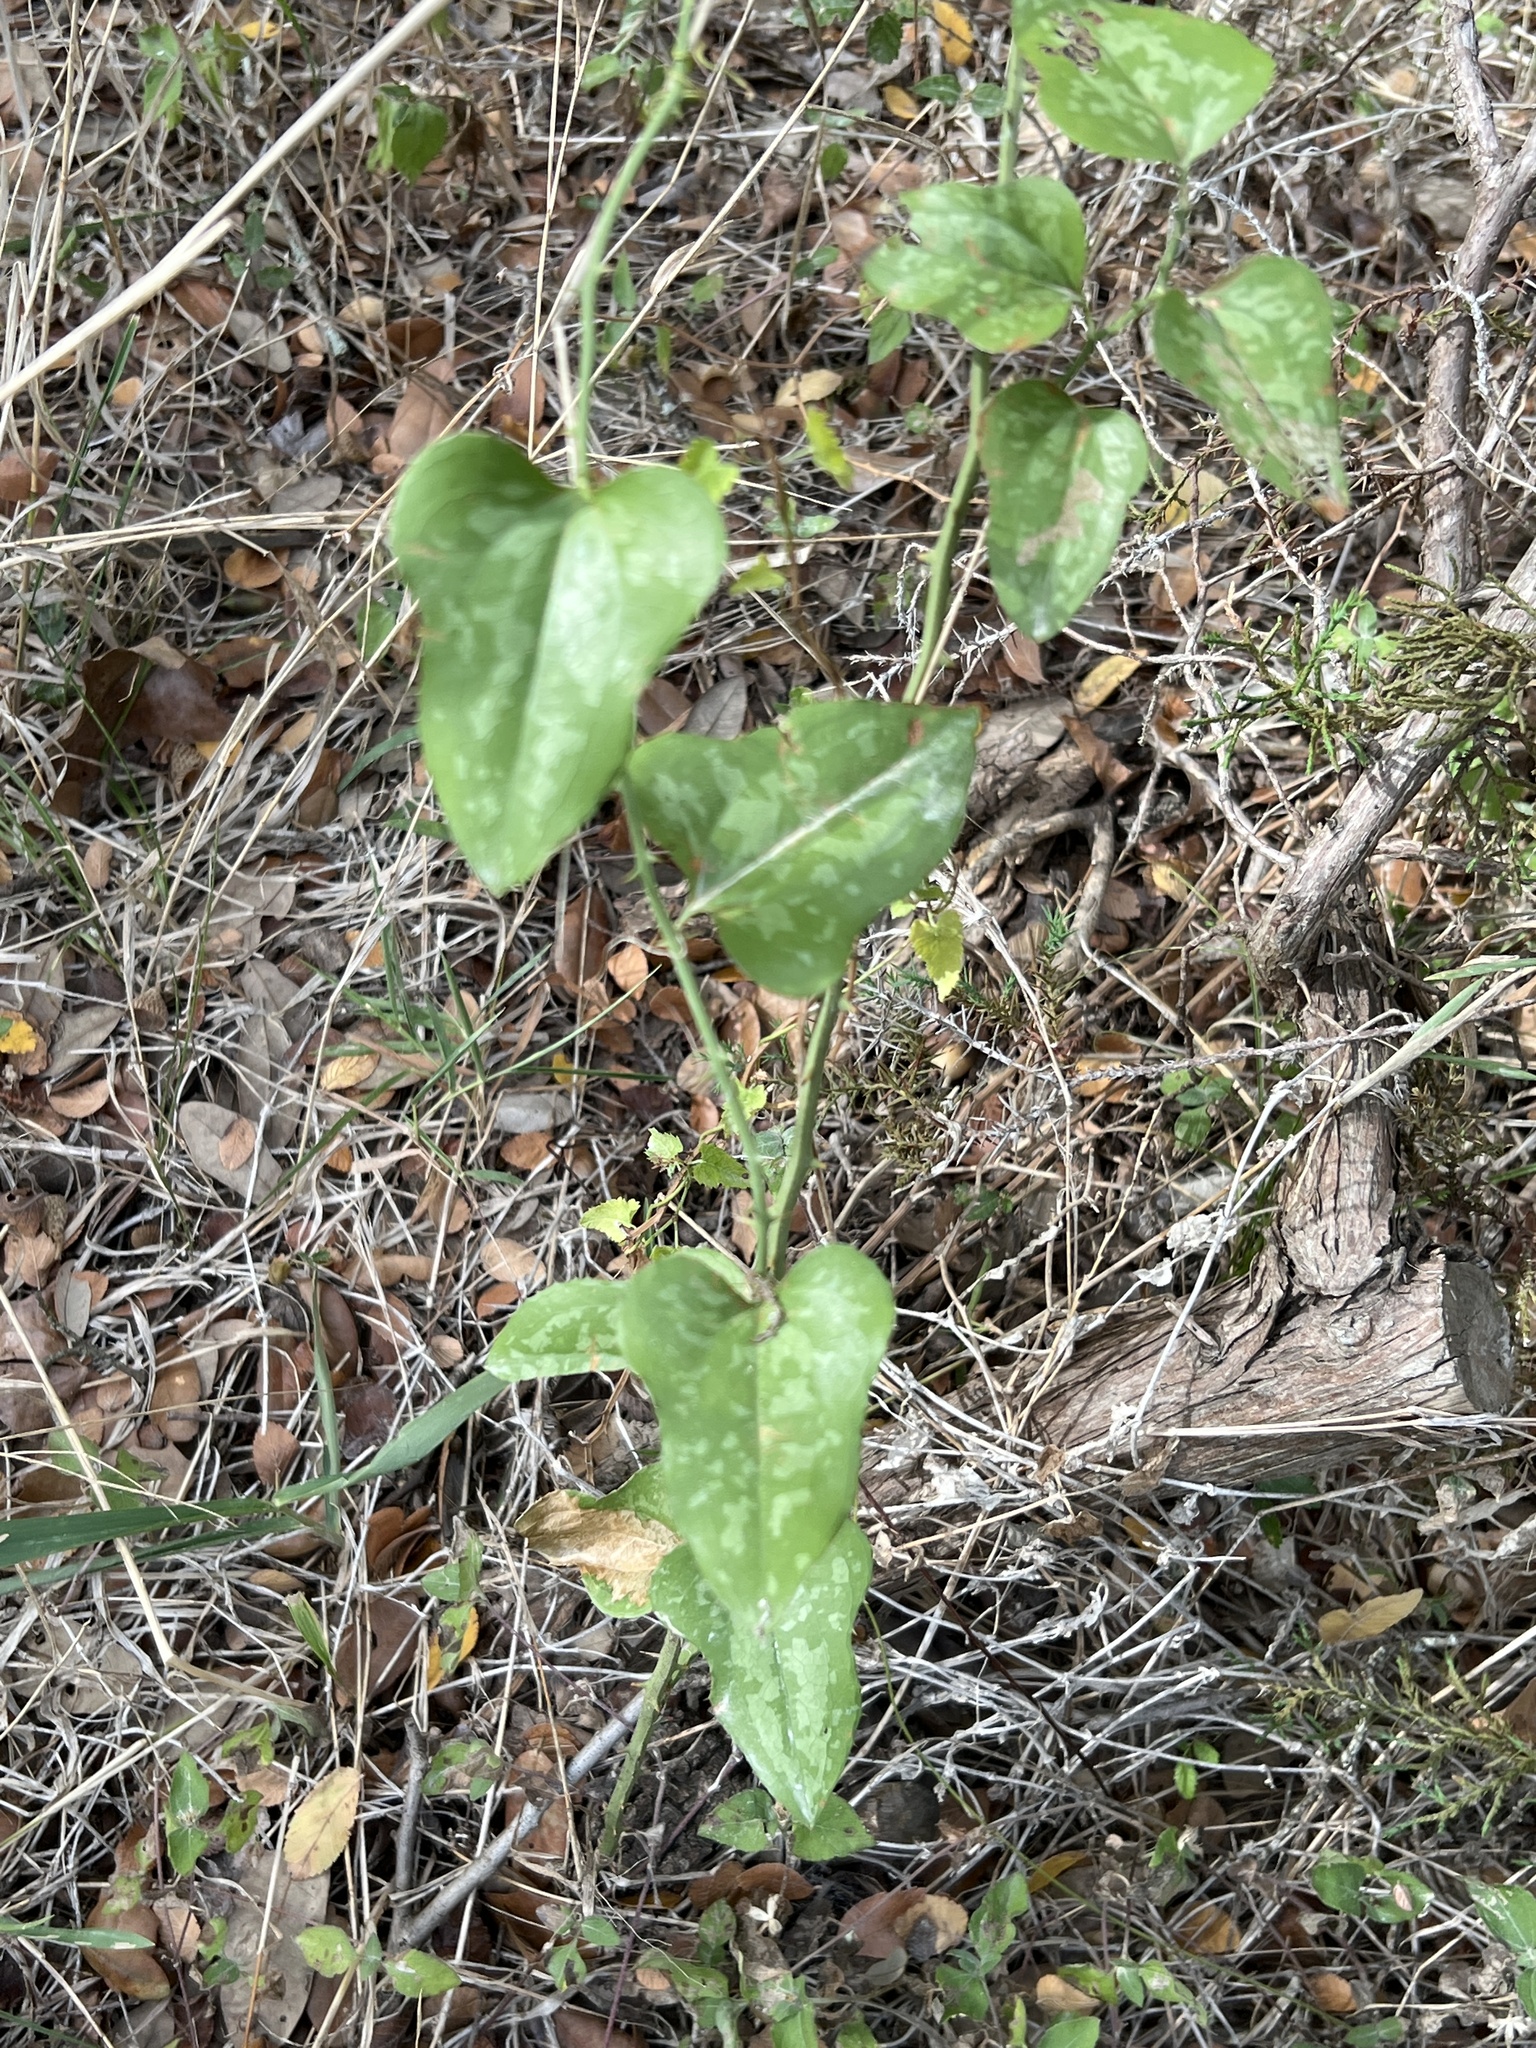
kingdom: Plantae
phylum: Tracheophyta
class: Liliopsida
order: Liliales
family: Smilacaceae
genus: Smilax
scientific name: Smilax bona-nox
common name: Catbrier
